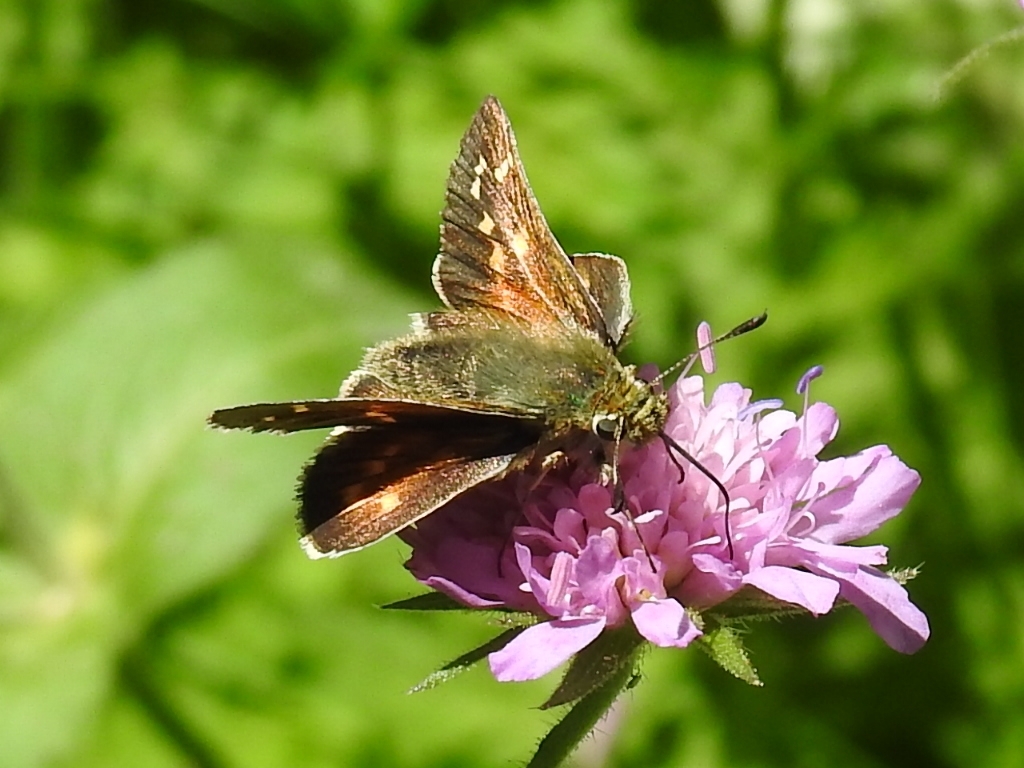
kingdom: Animalia
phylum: Arthropoda
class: Insecta
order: Lepidoptera
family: Hesperiidae
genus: Hesperia
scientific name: Hesperia comma
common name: Common branded skipper
